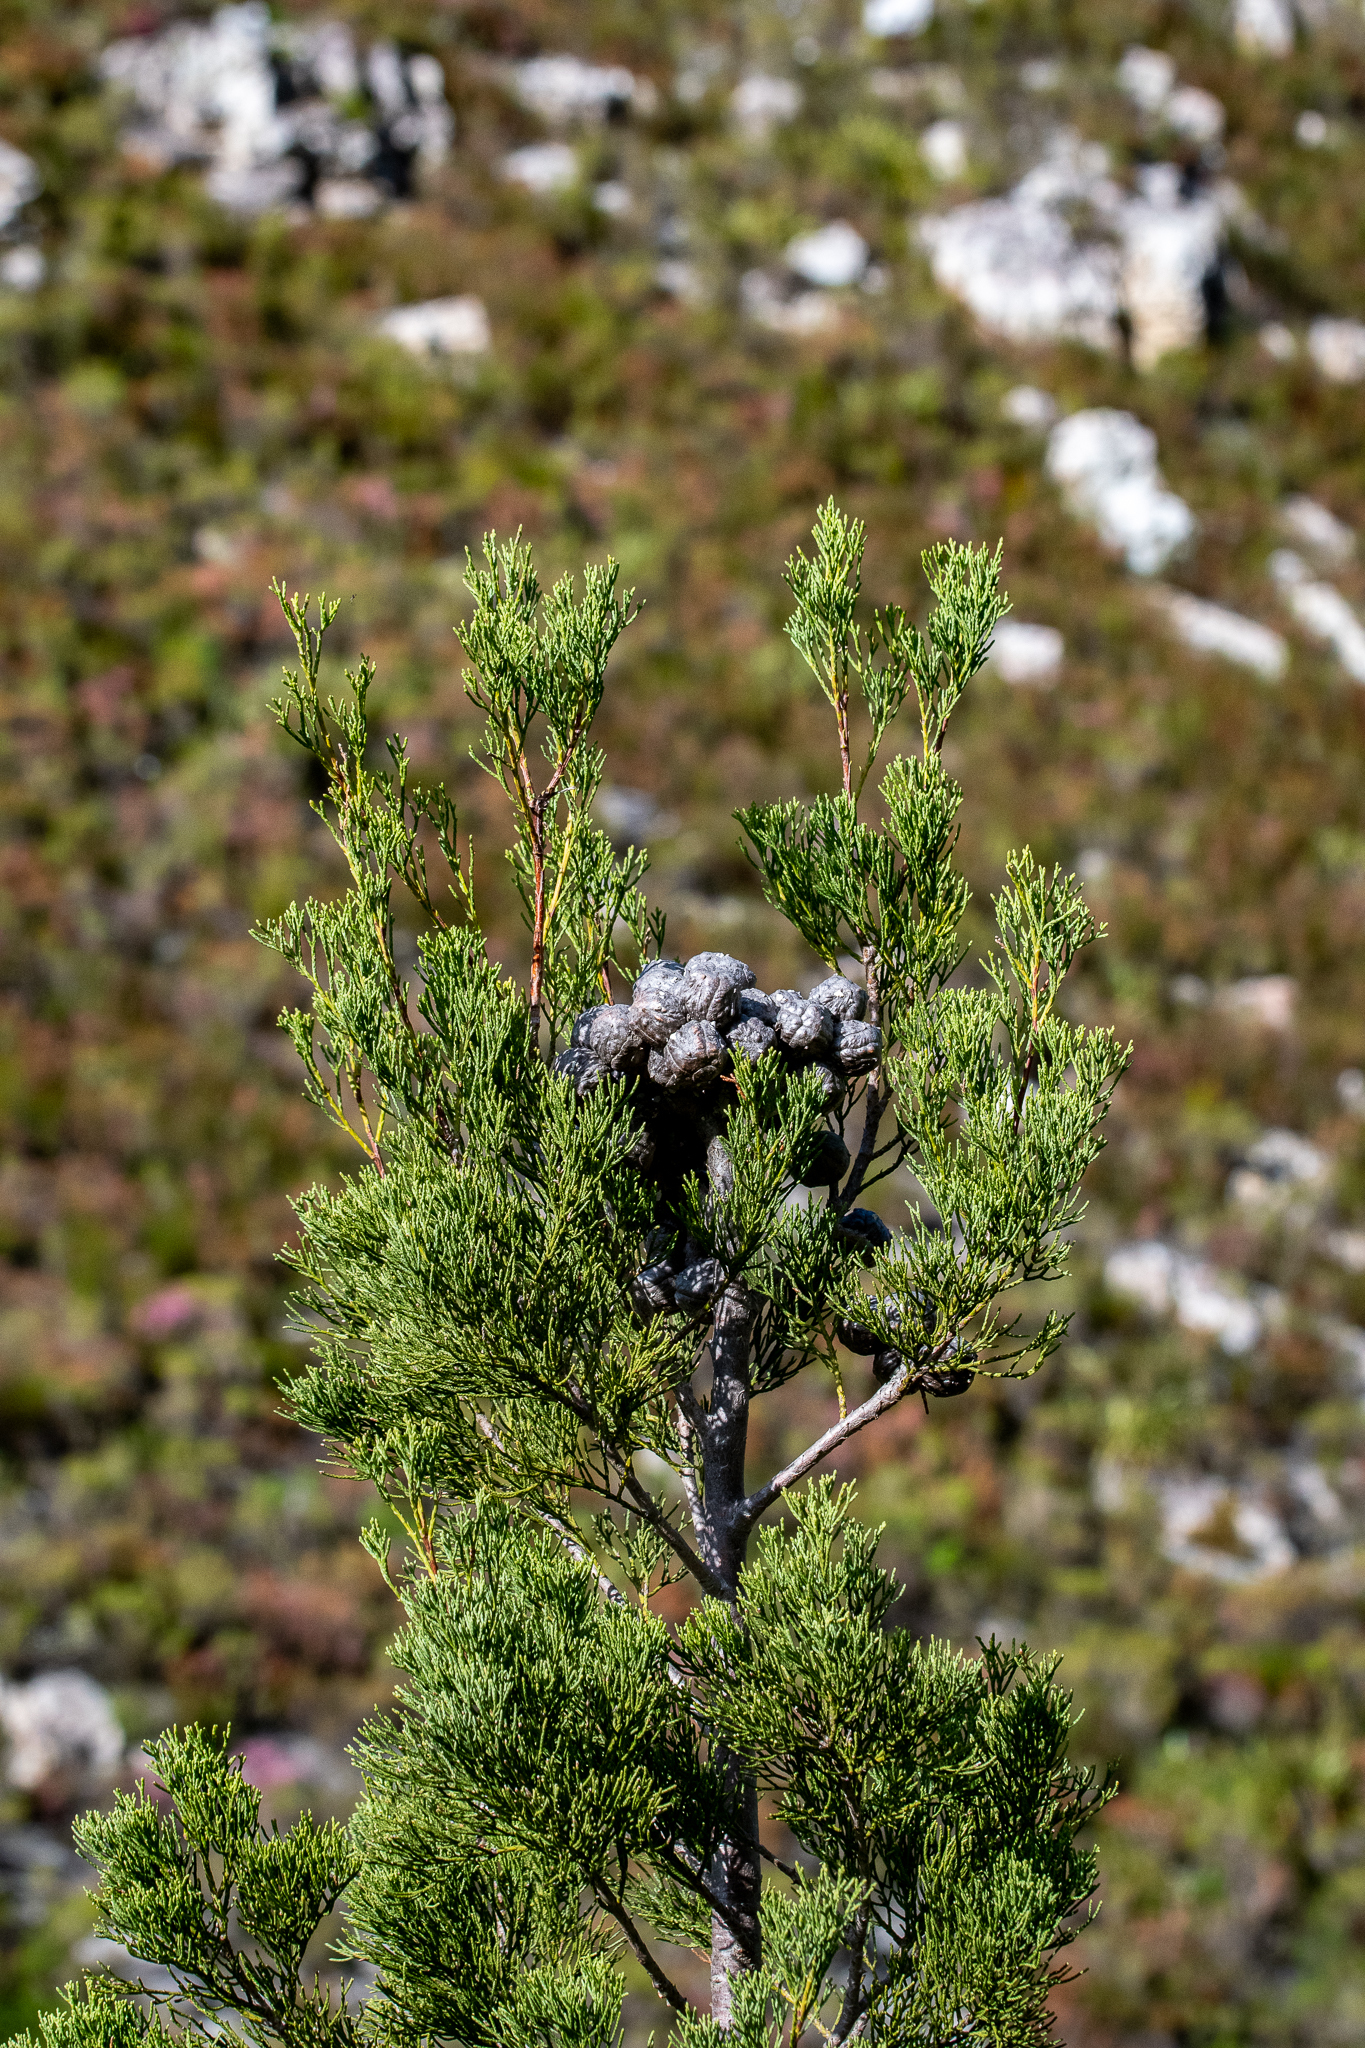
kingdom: Plantae
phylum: Tracheophyta
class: Pinopsida
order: Pinales
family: Cupressaceae
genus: Widdringtonia
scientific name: Widdringtonia nodiflora
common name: Cape cypress
